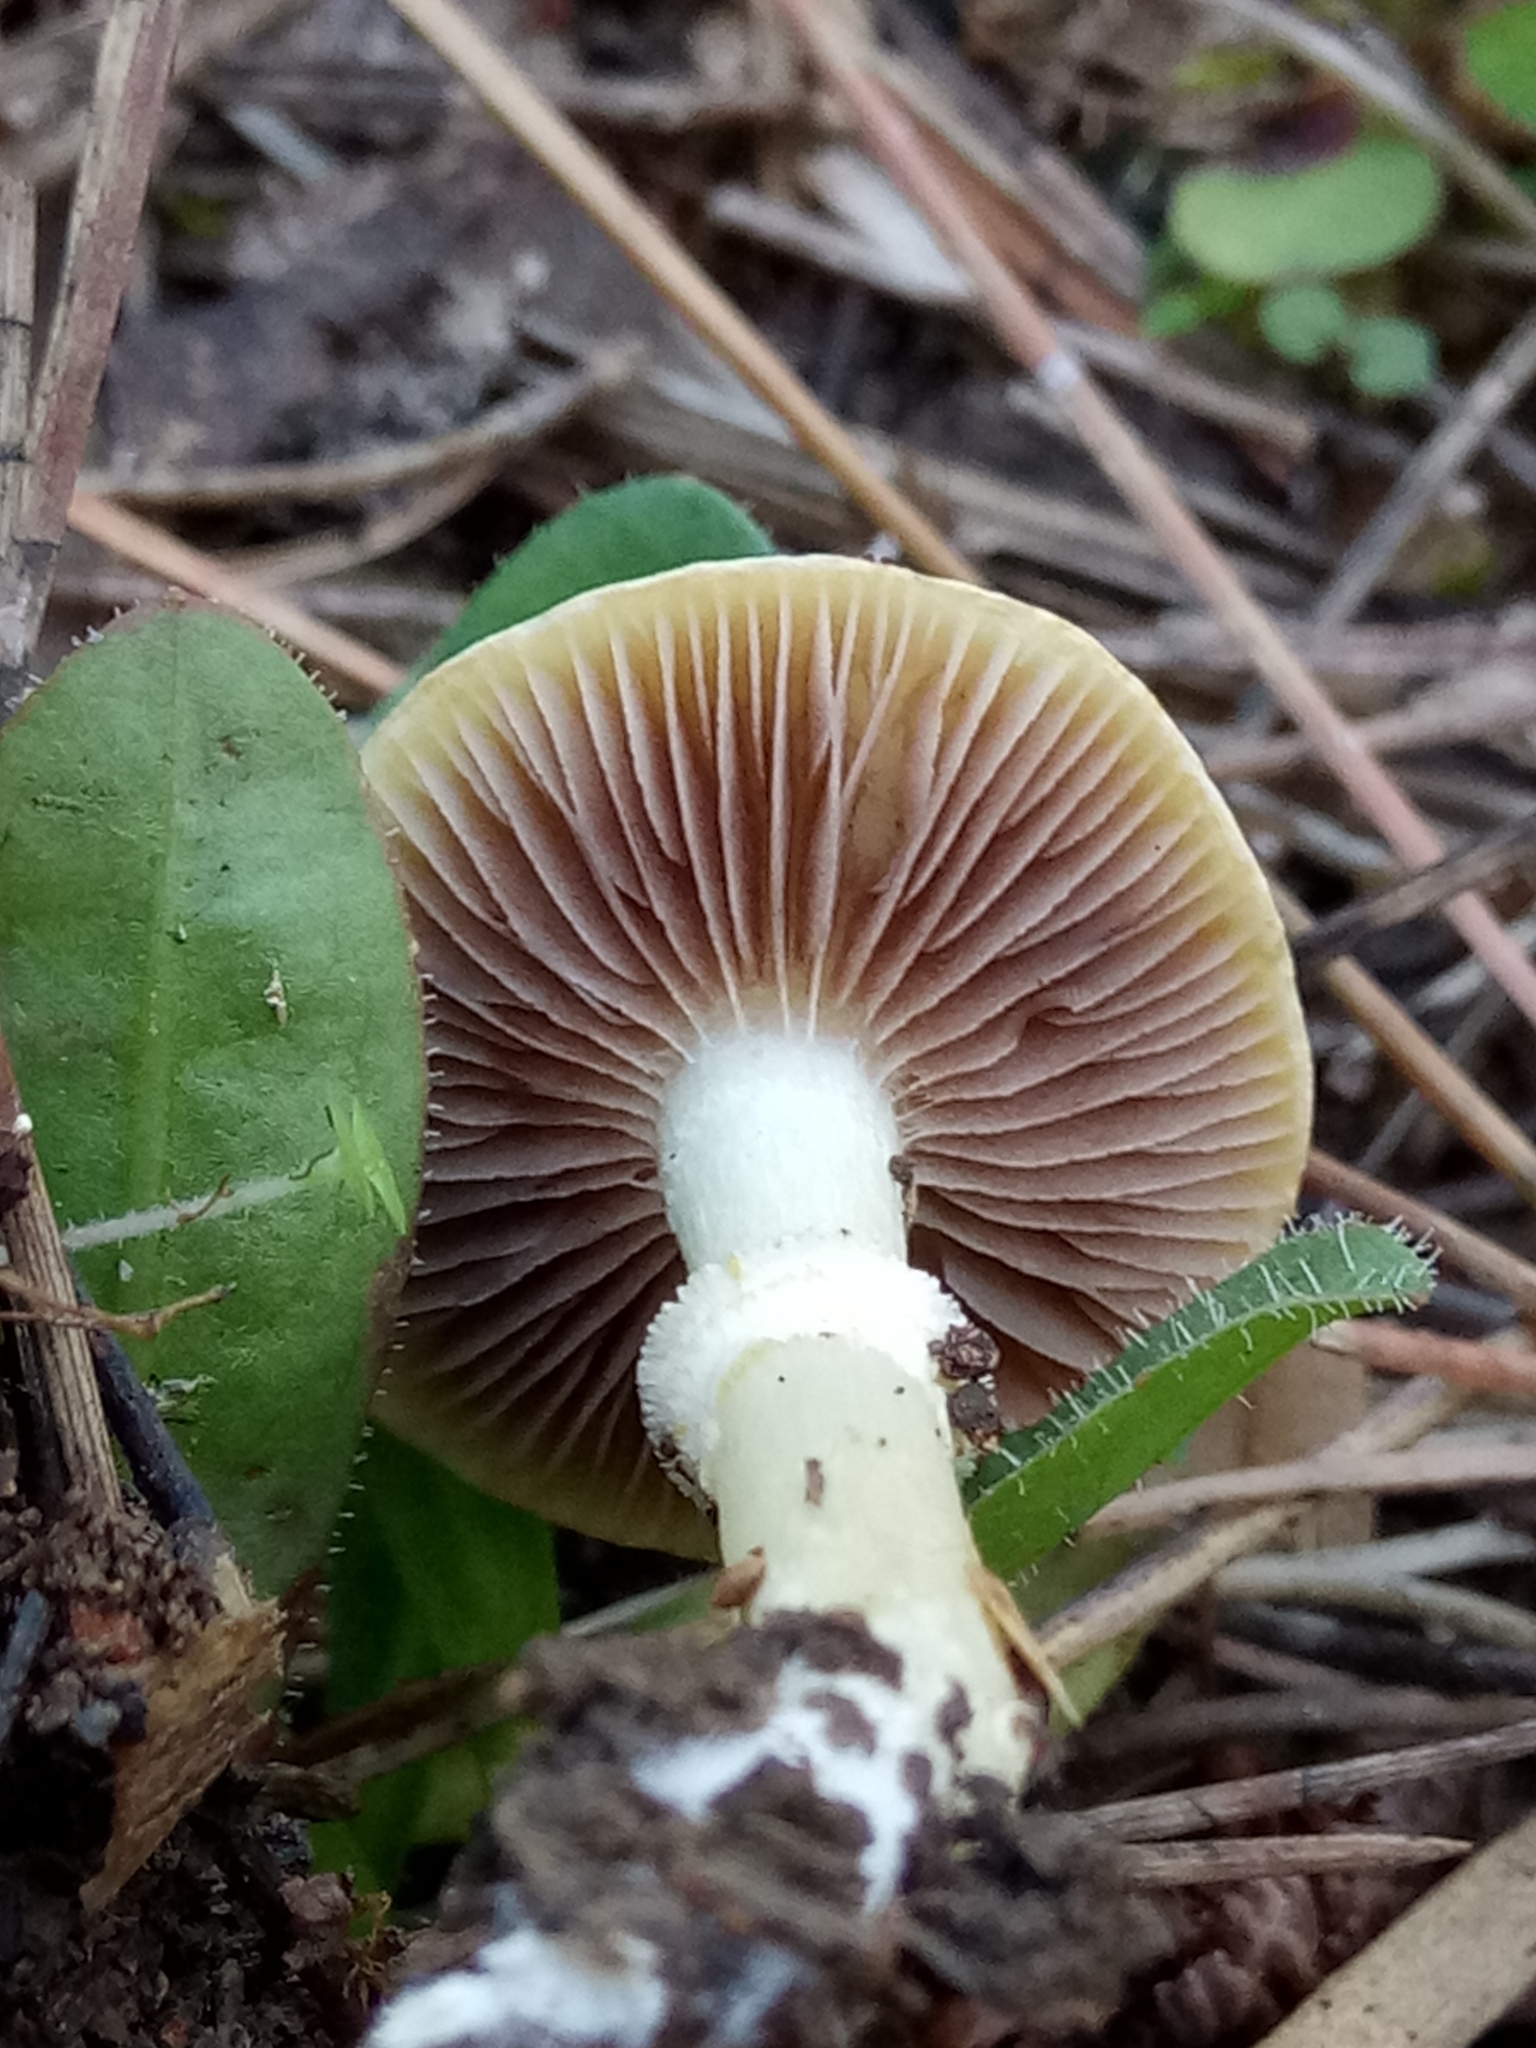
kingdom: Fungi
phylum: Basidiomycota
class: Agaricomycetes
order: Agaricales
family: Hymenogastraceae
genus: Psilocybe
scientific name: Psilocybe coronilla
